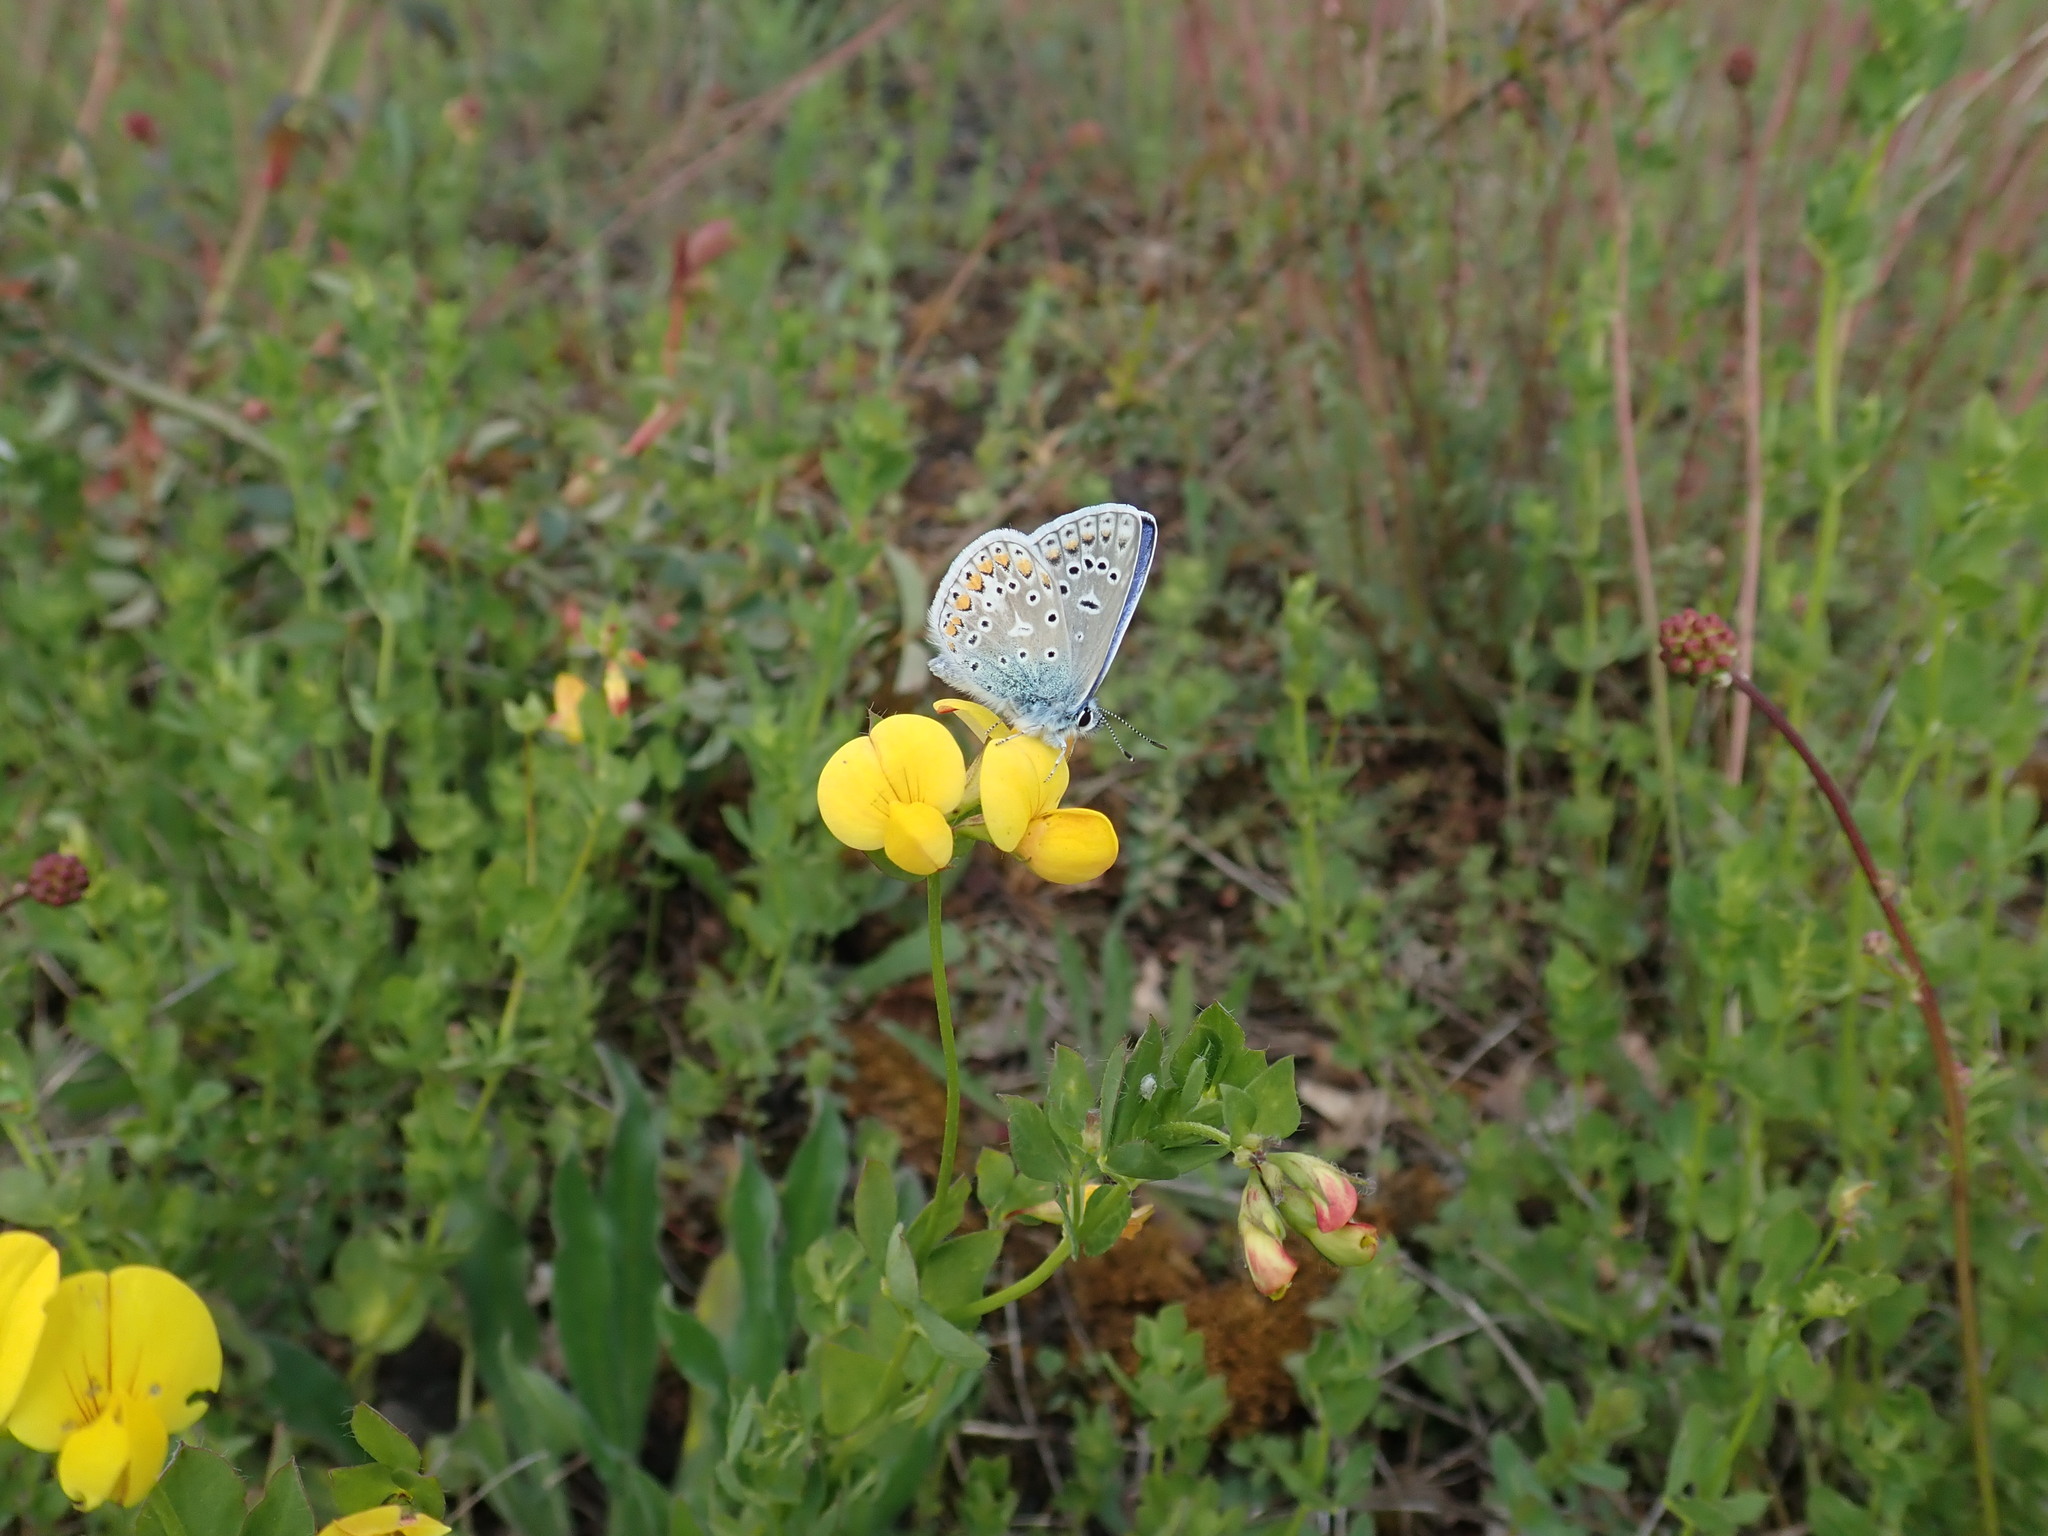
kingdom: Animalia
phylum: Arthropoda
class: Insecta
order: Lepidoptera
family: Lycaenidae
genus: Polyommatus
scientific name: Polyommatus icarus
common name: Common blue
